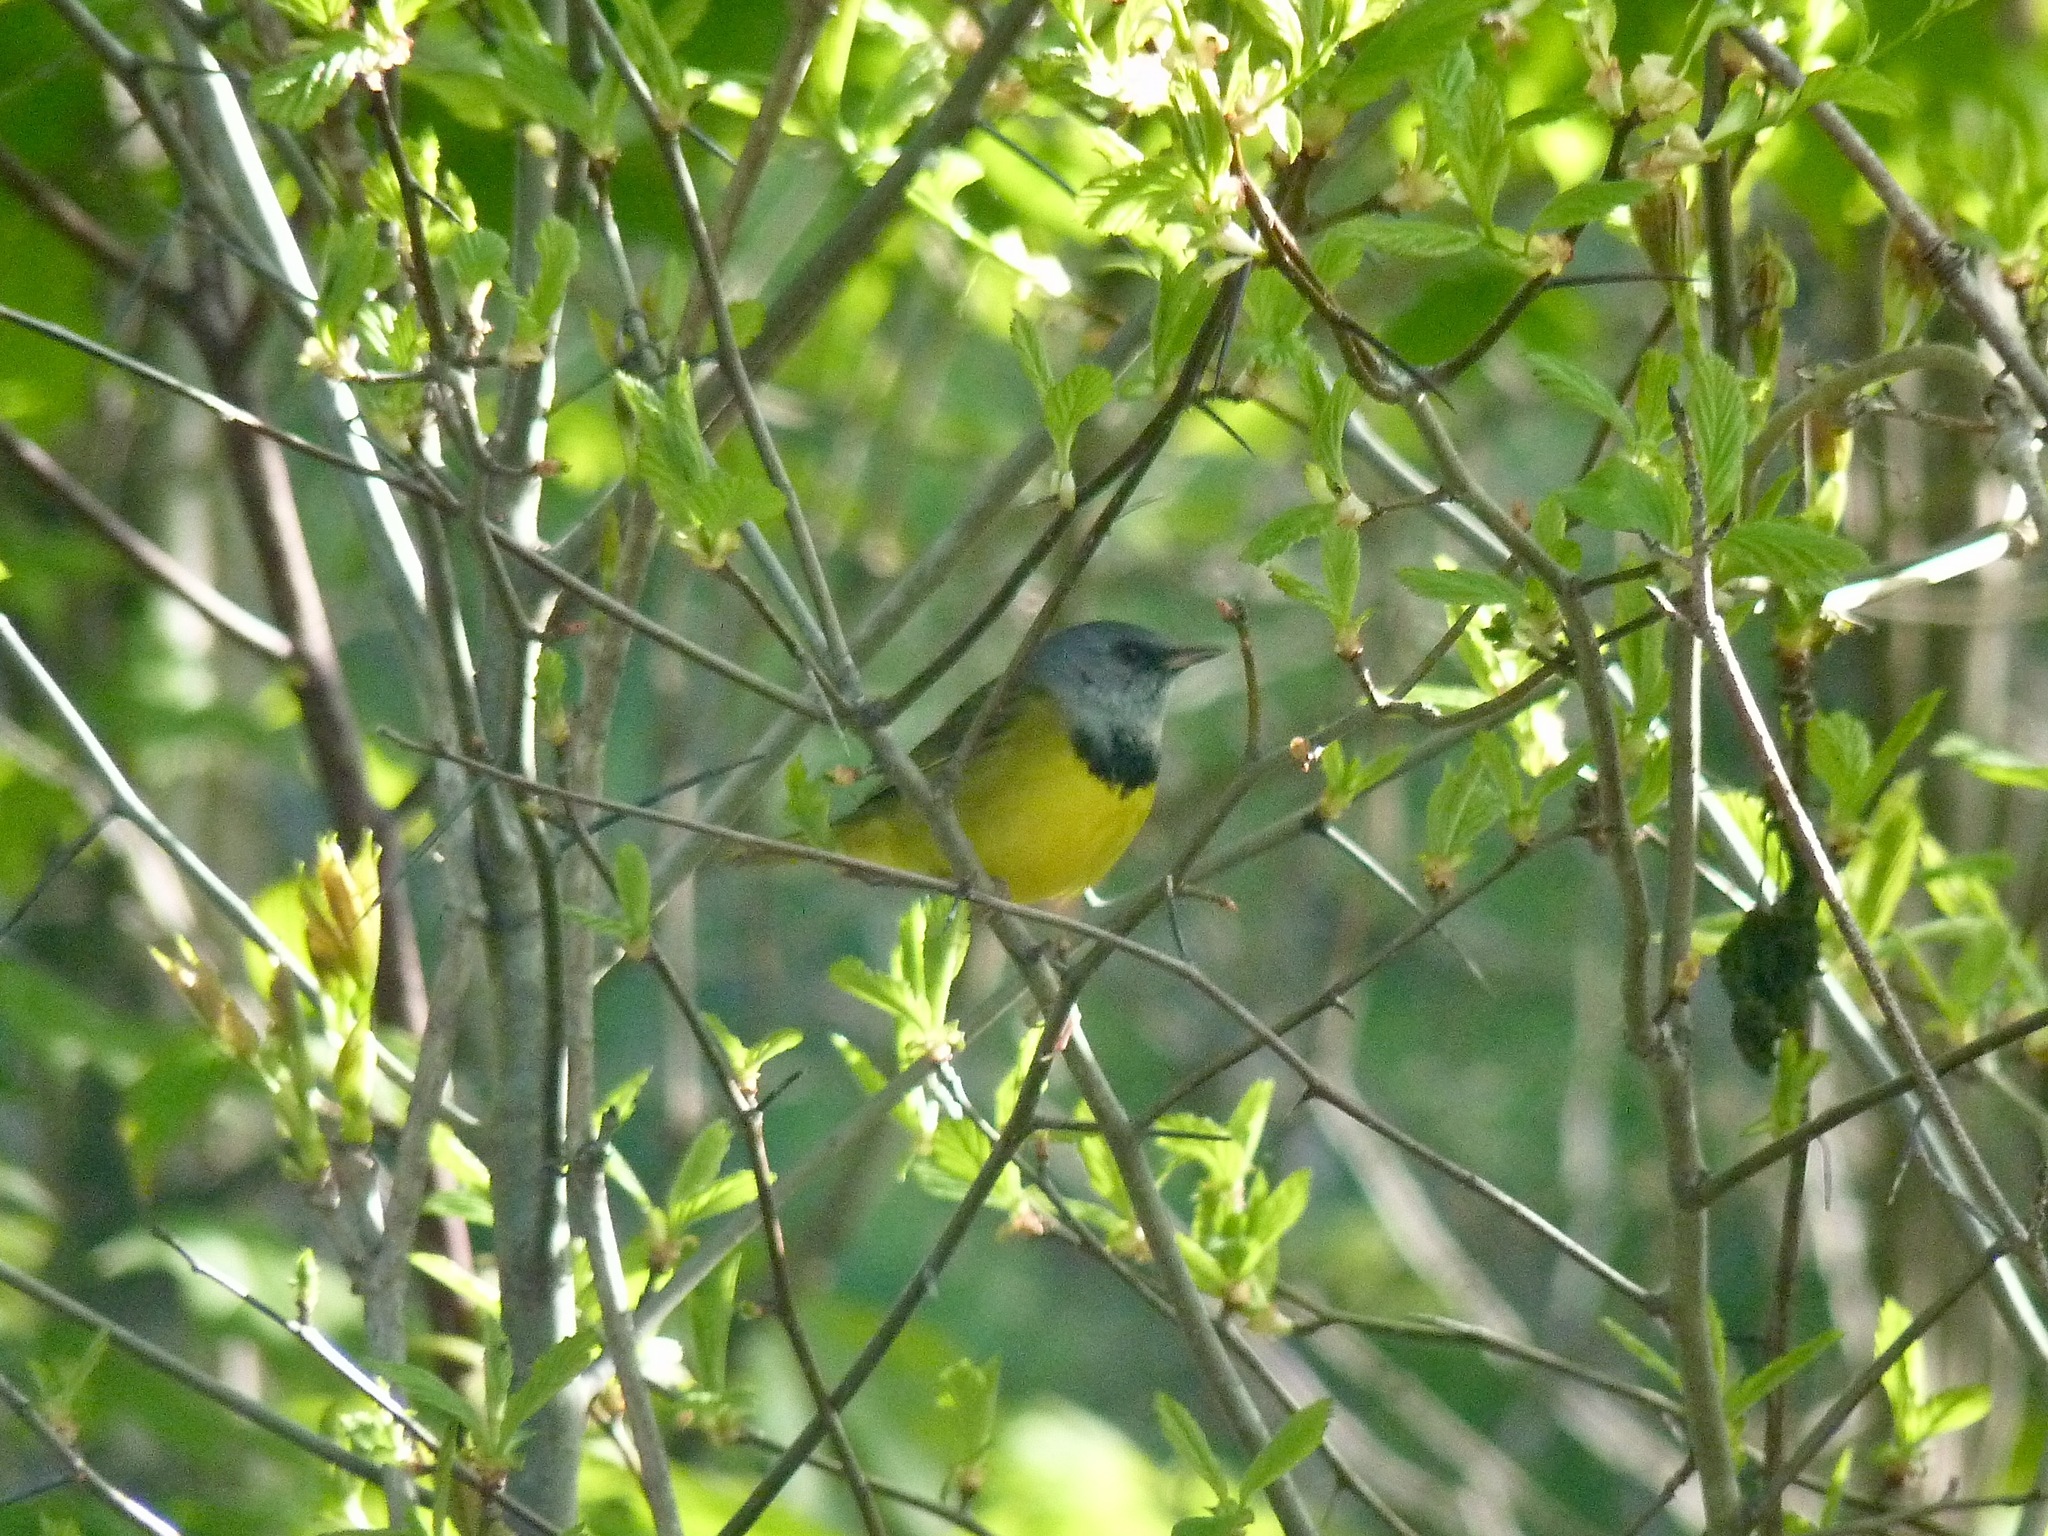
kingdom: Animalia
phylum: Chordata
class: Aves
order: Passeriformes
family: Parulidae
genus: Geothlypis
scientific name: Geothlypis philadelphia
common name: Mourning warbler
